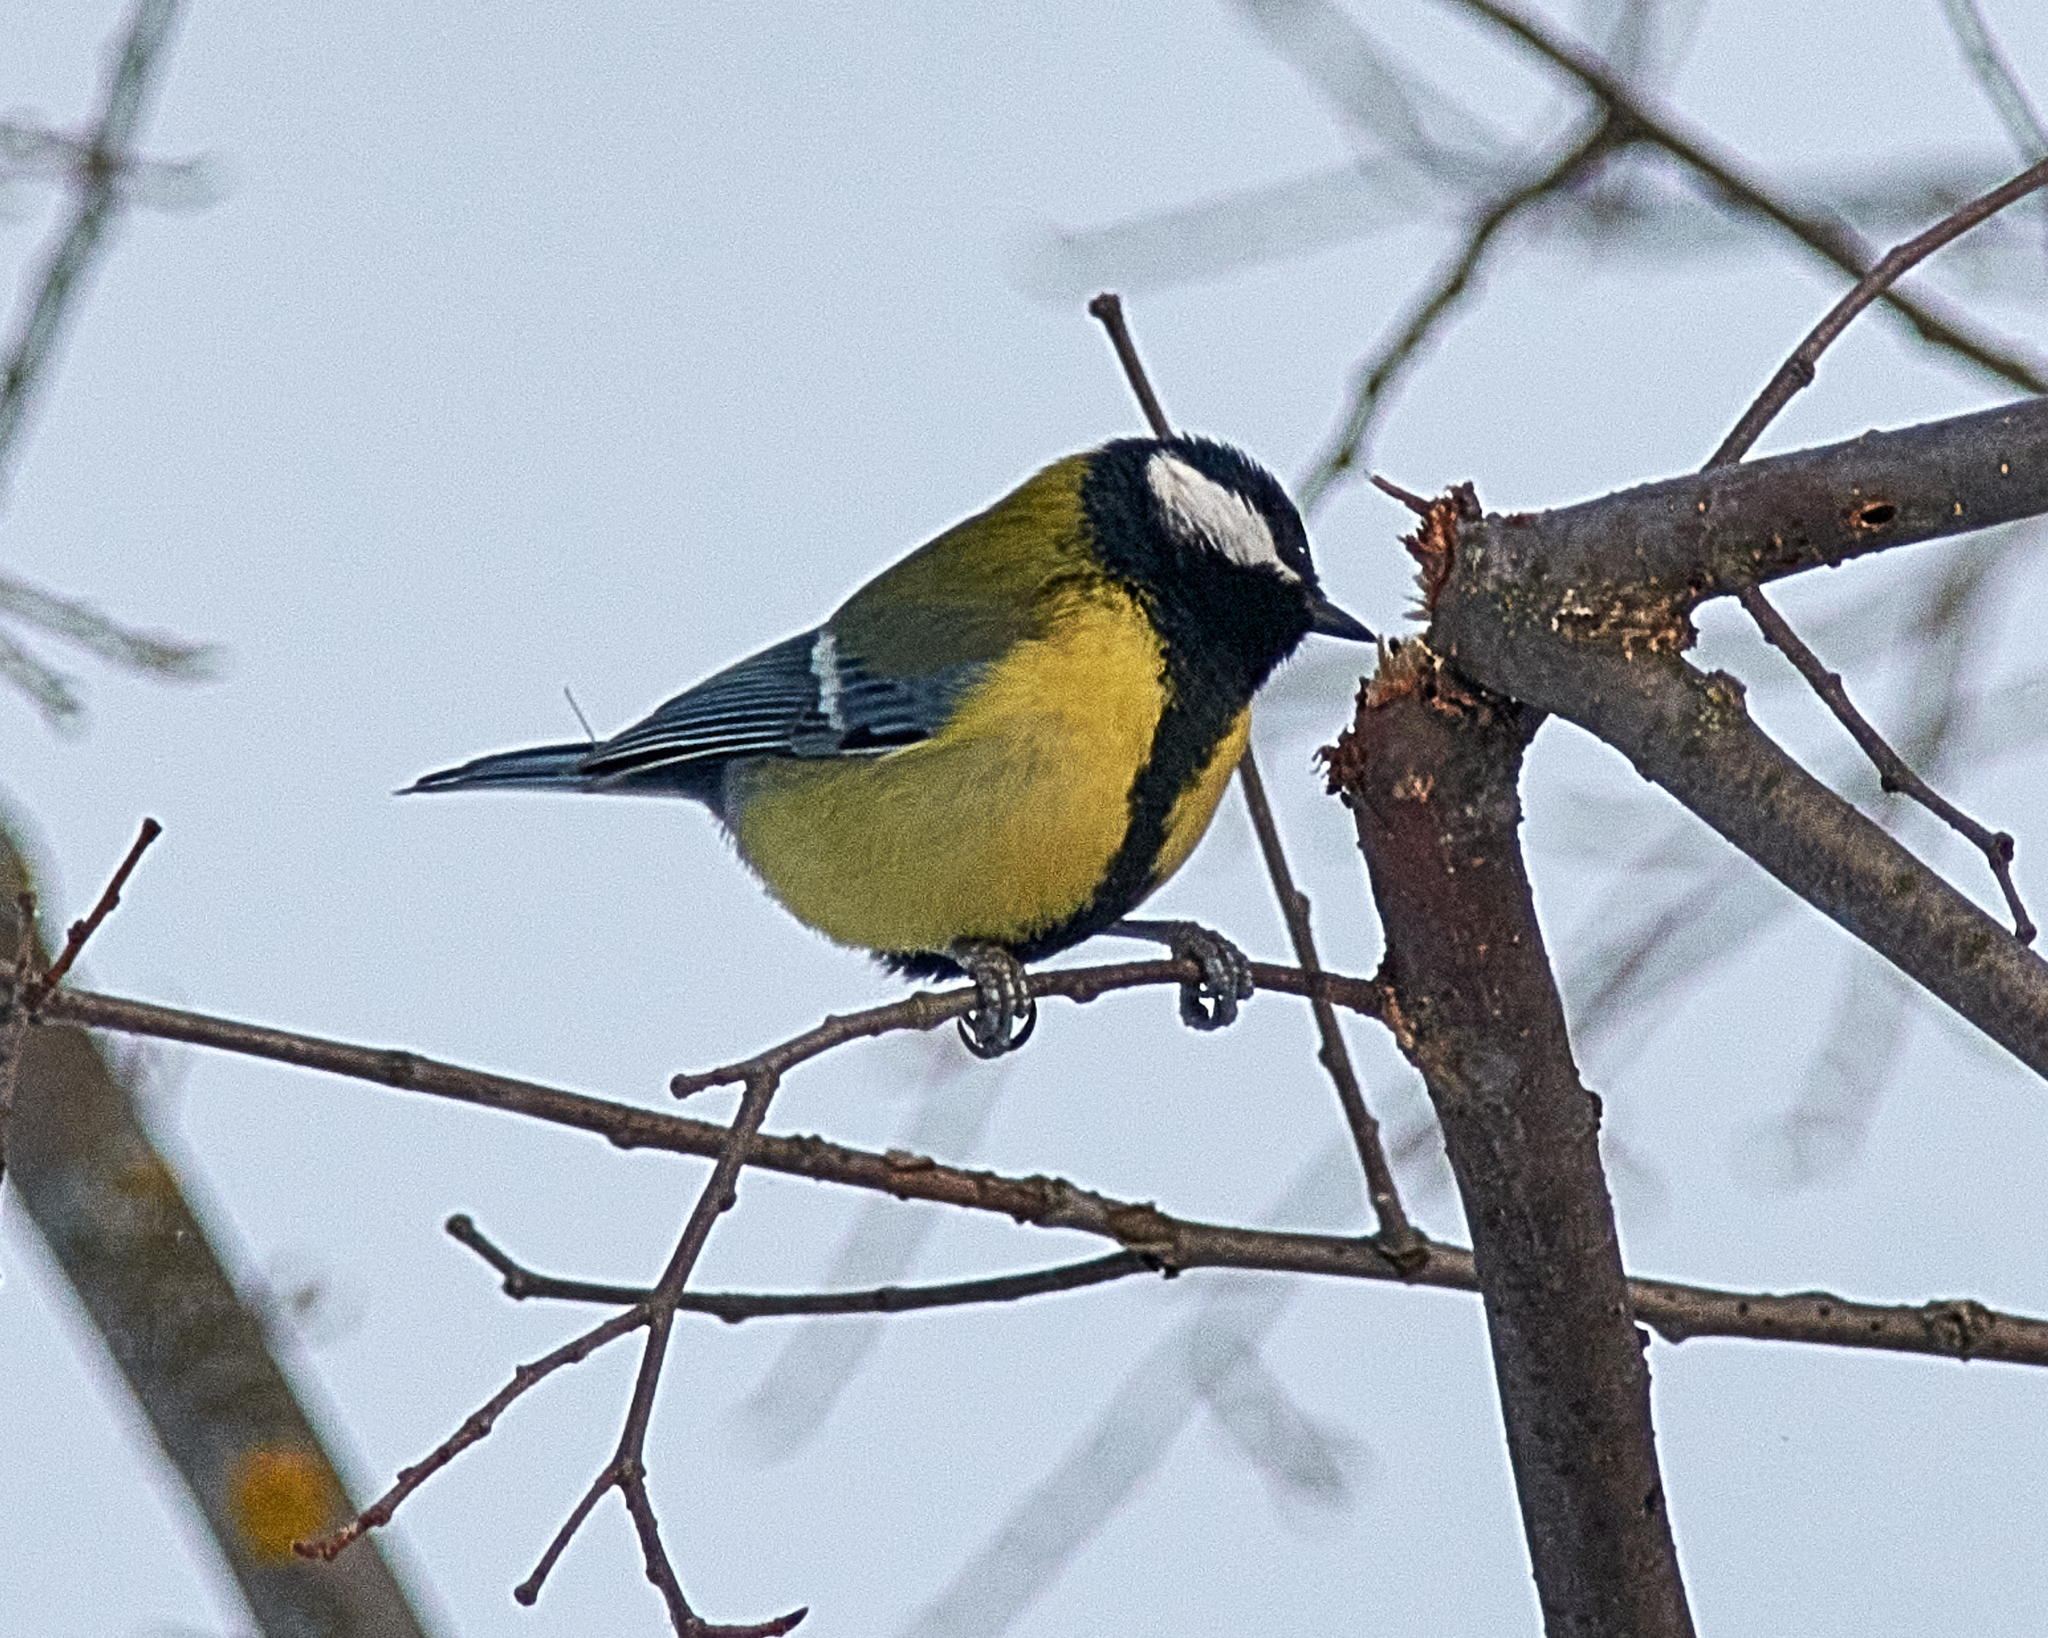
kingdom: Animalia
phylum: Chordata
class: Aves
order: Passeriformes
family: Paridae
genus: Parus
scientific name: Parus major
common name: Great tit
